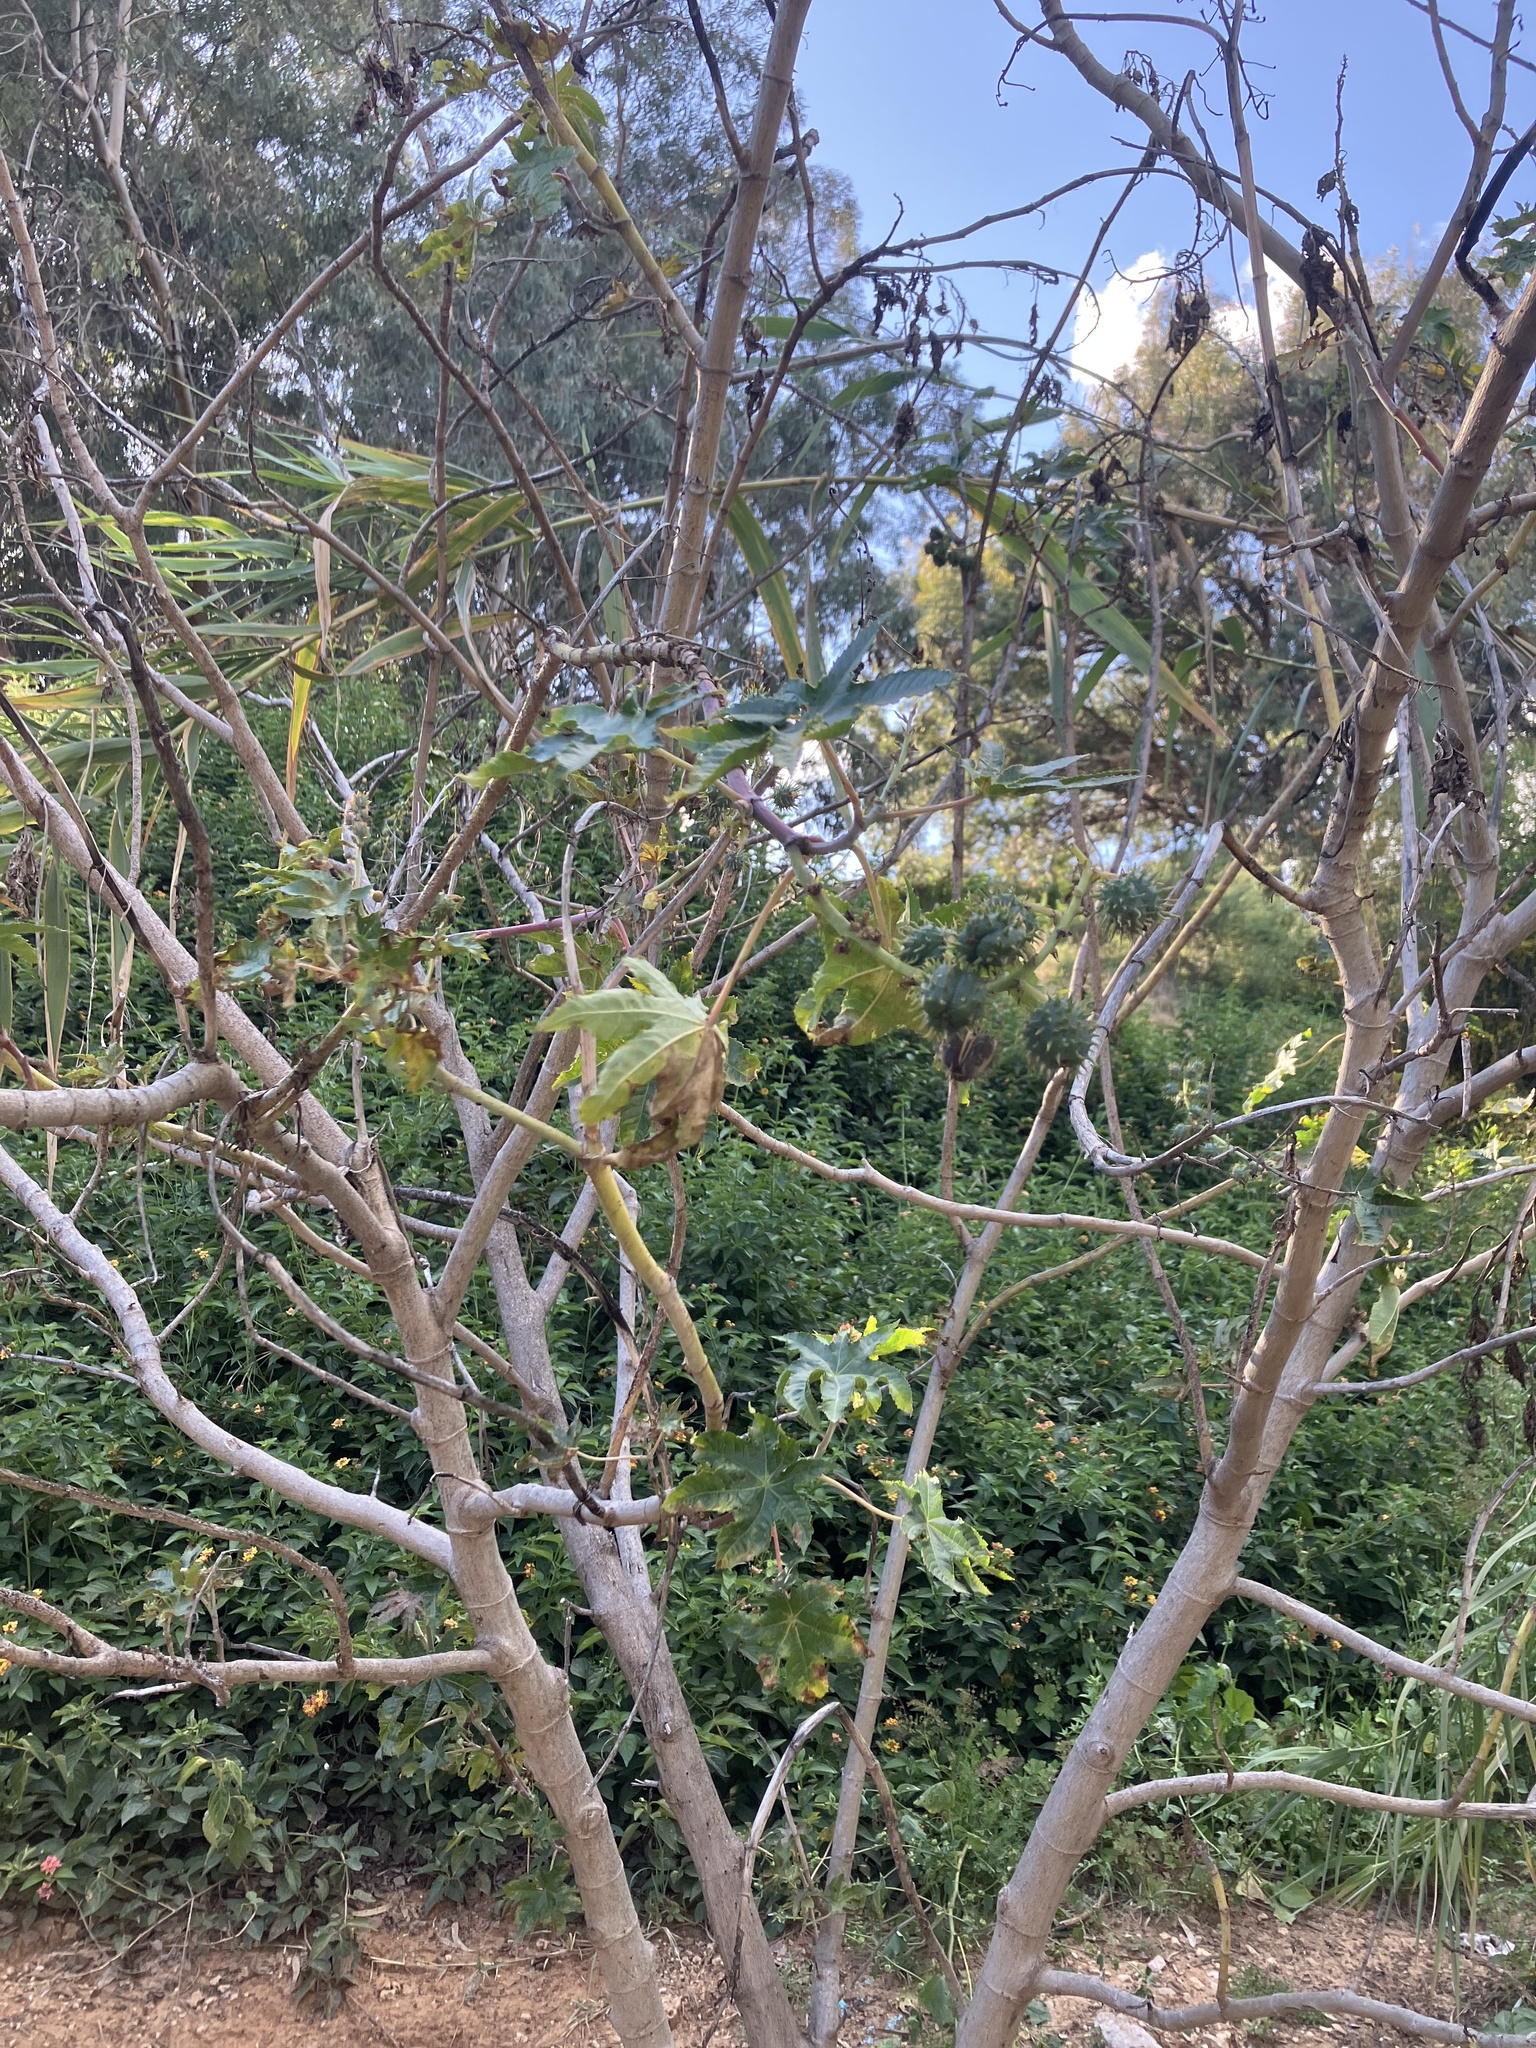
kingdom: Plantae
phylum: Tracheophyta
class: Magnoliopsida
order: Malpighiales
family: Euphorbiaceae
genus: Ricinus
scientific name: Ricinus communis
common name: Castor-oil-plant
